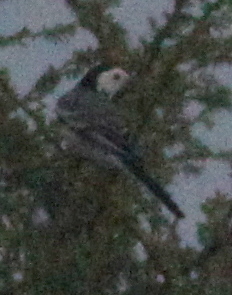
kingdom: Animalia
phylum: Chordata
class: Aves
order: Passeriformes
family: Motacillidae
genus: Motacilla
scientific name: Motacilla alba
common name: White wagtail
